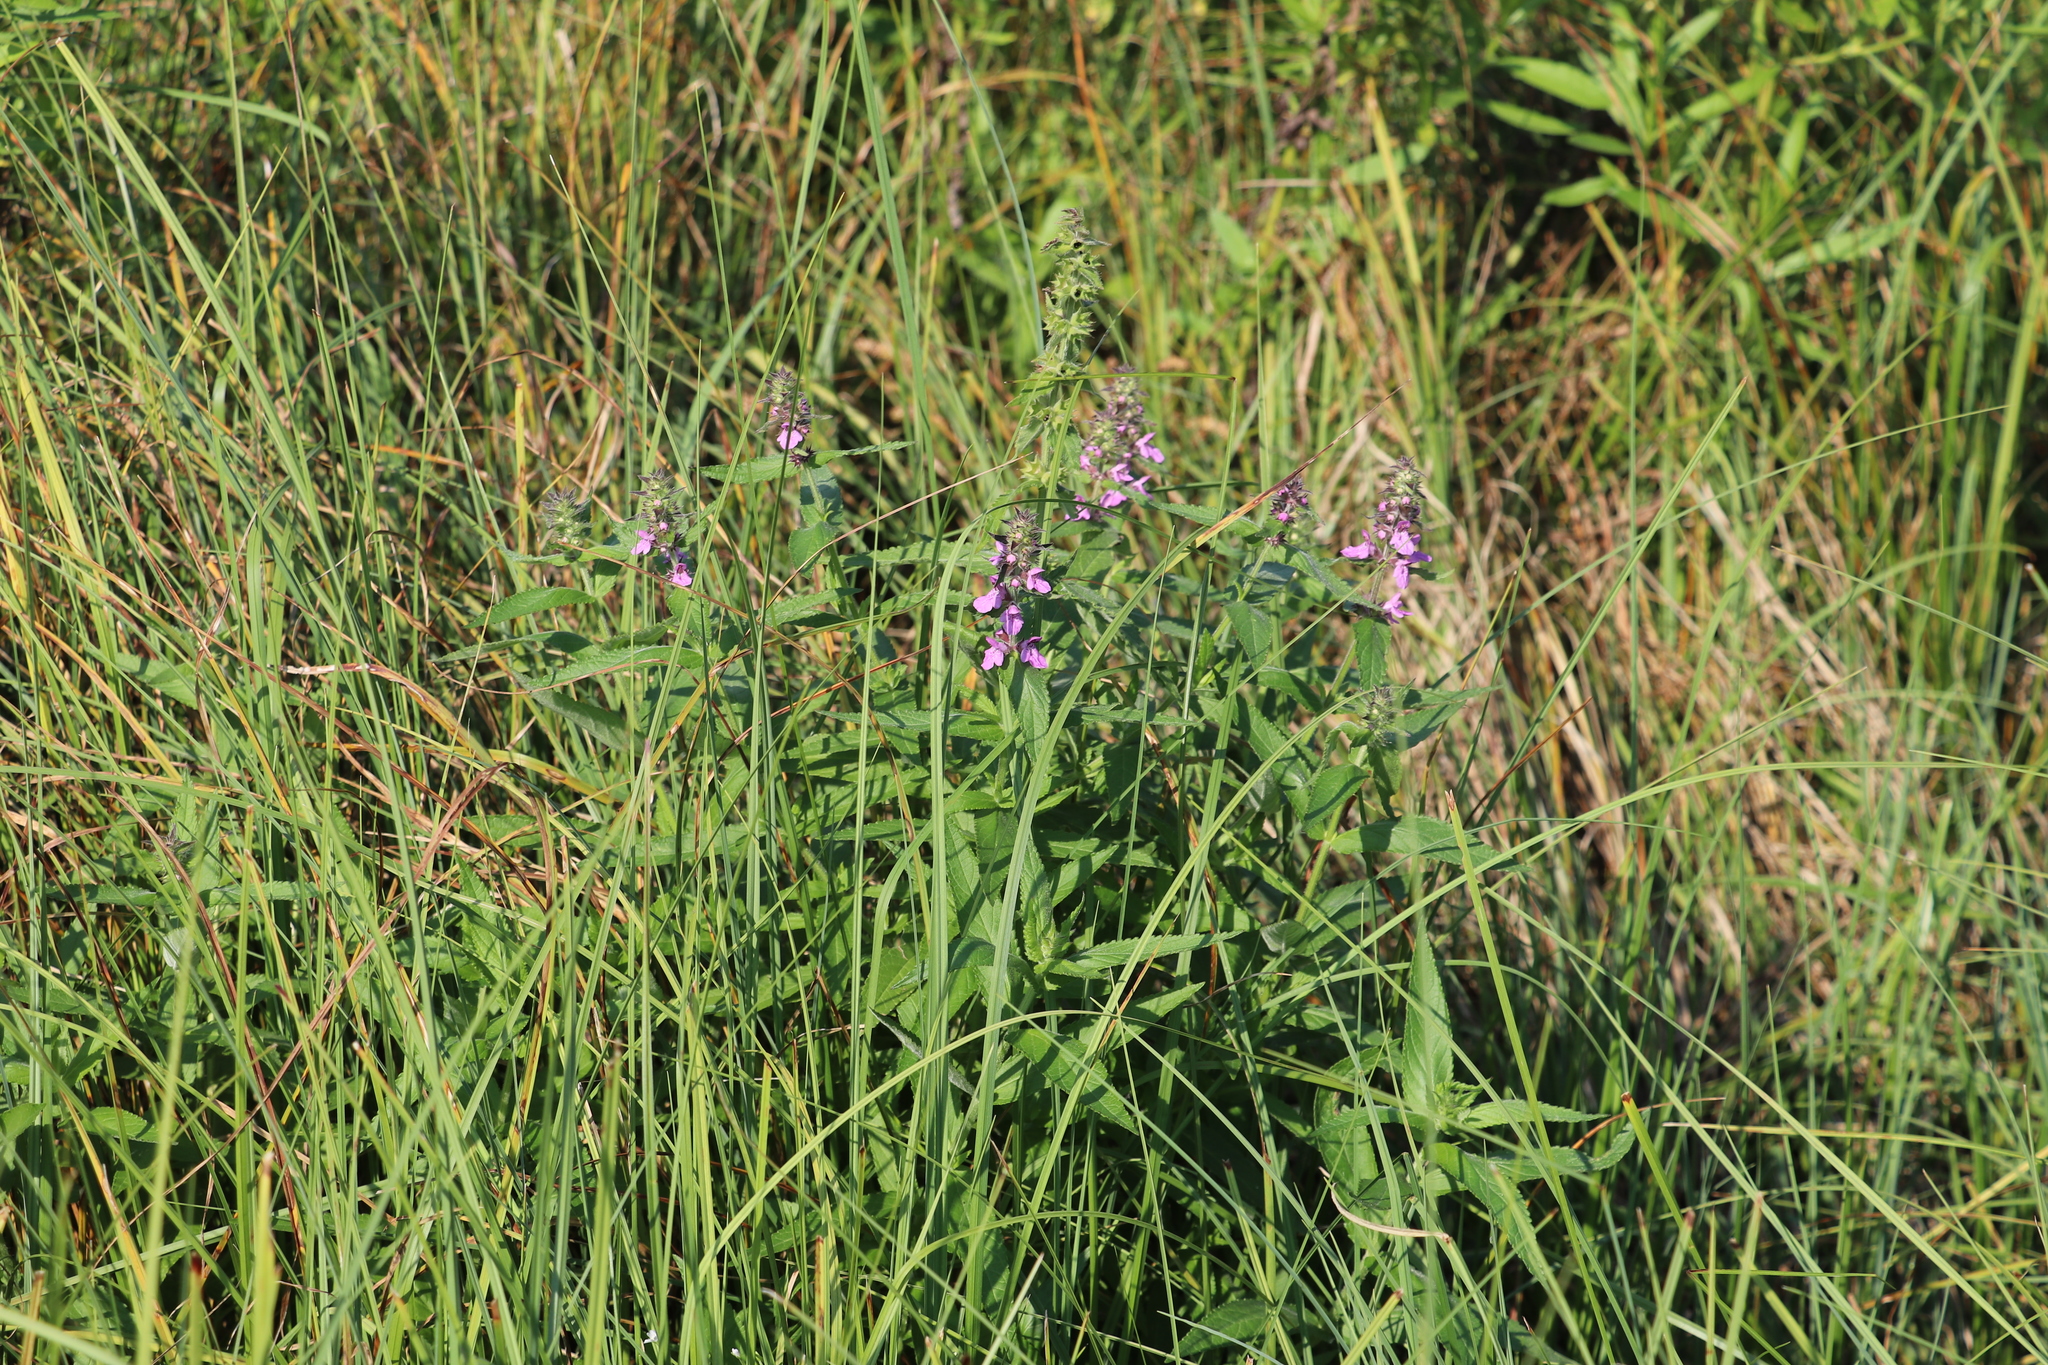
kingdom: Plantae
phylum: Tracheophyta
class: Magnoliopsida
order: Lamiales
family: Lamiaceae
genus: Stachys
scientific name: Stachys palustris
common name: Marsh woundwort
